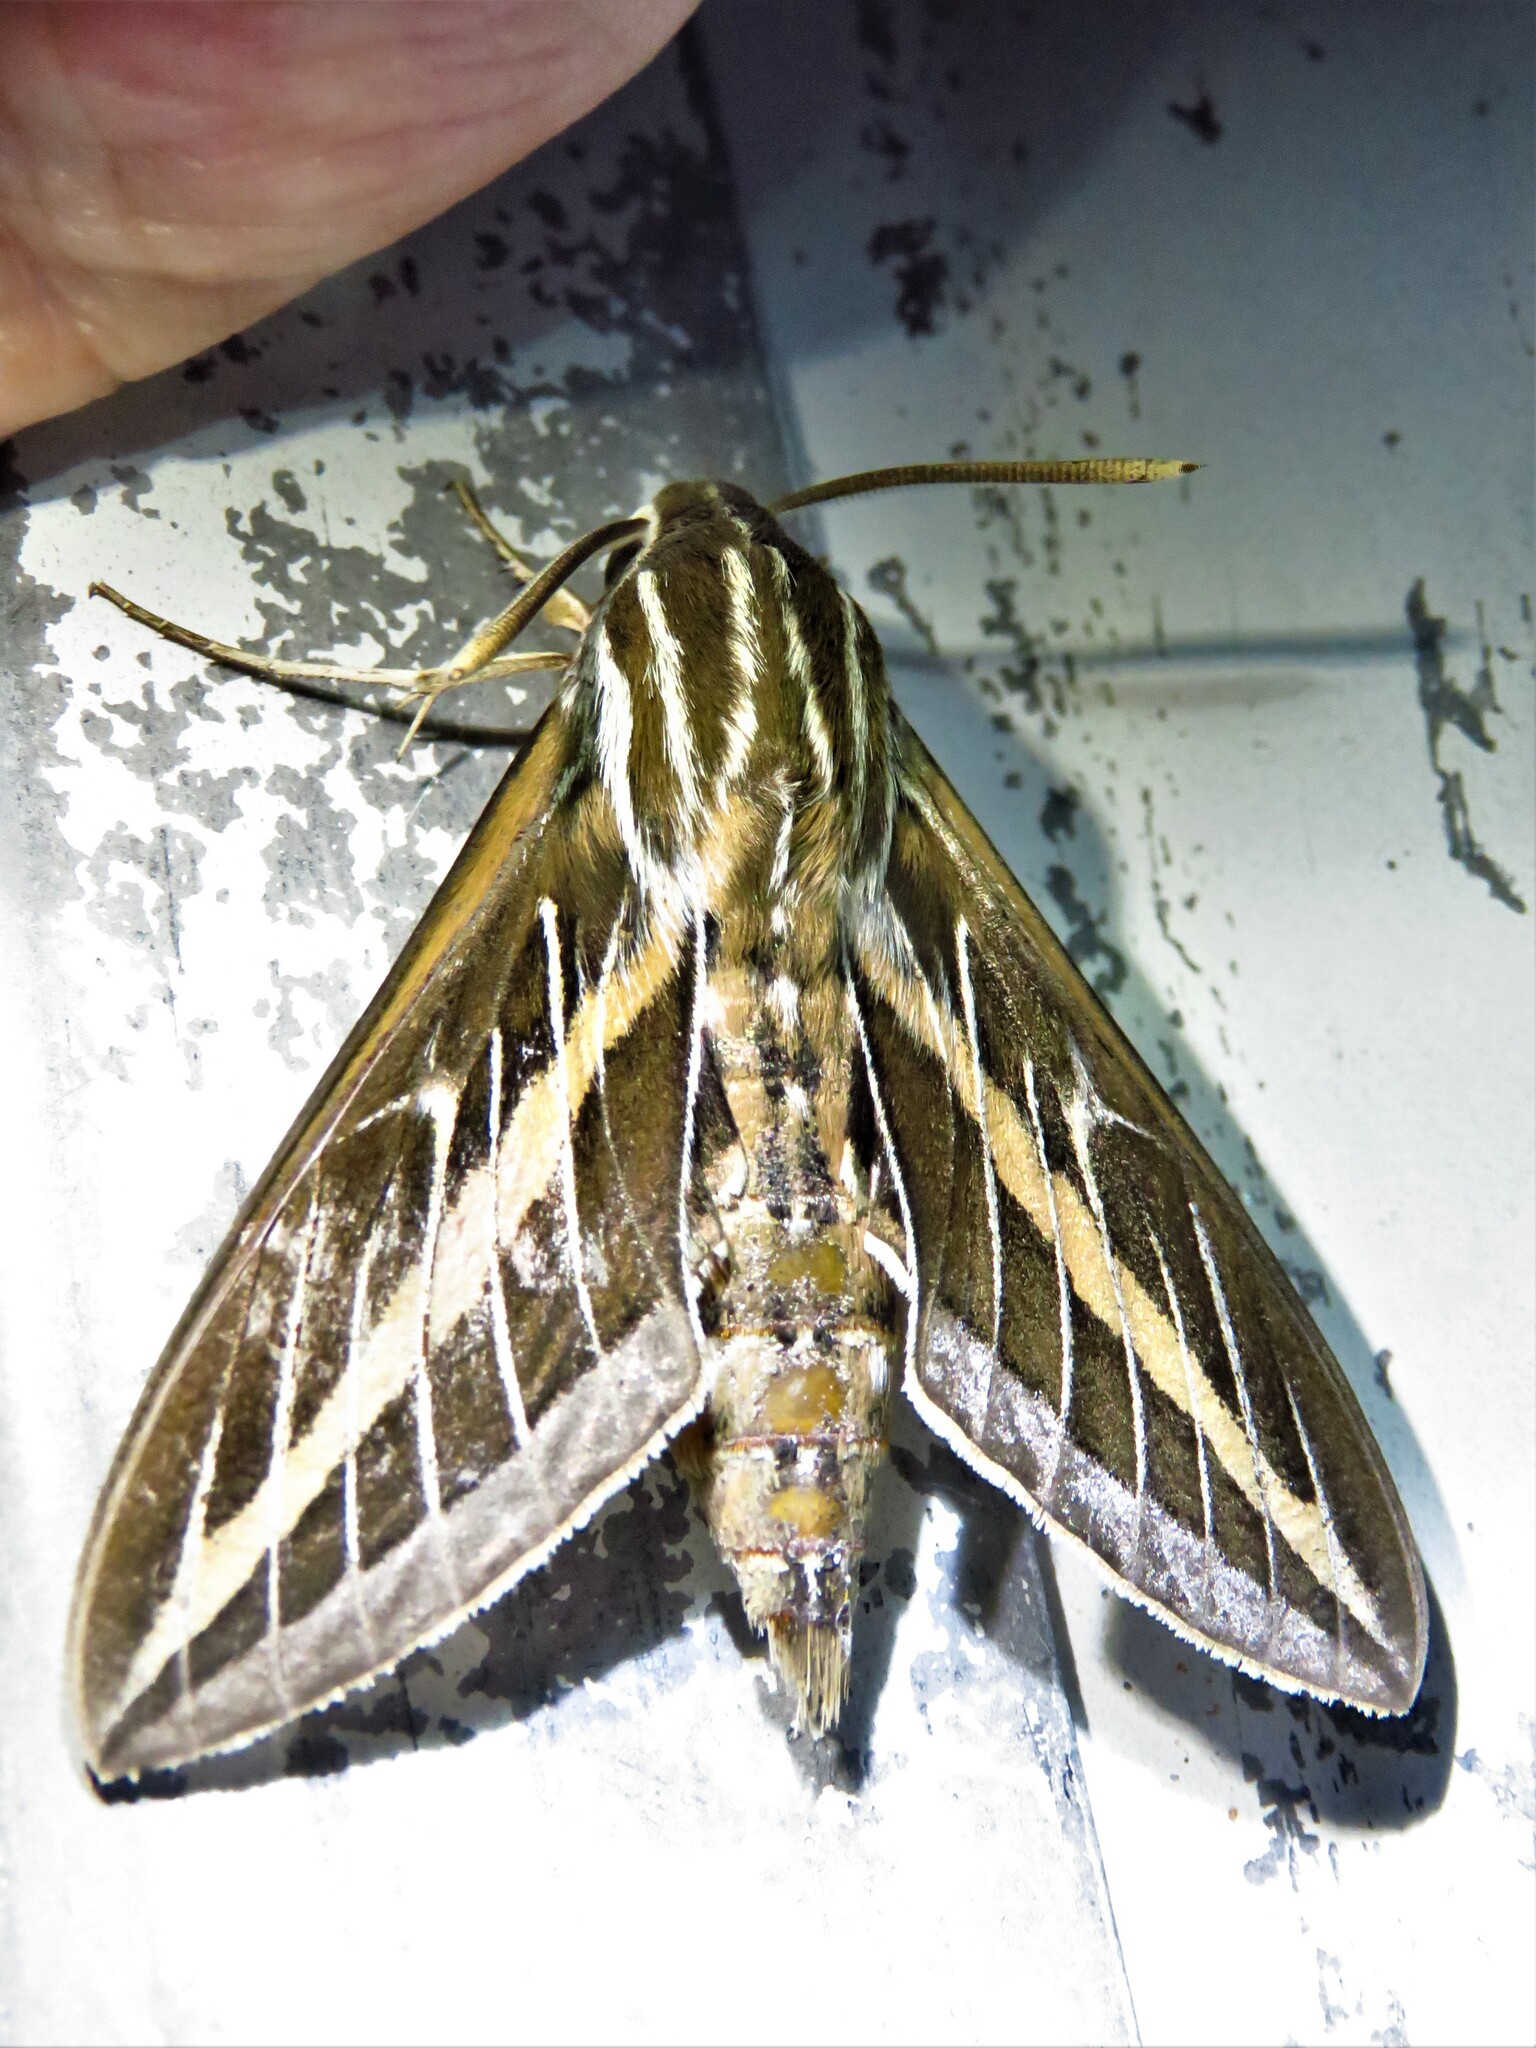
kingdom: Animalia
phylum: Arthropoda
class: Insecta
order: Lepidoptera
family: Sphingidae
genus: Hyles
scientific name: Hyles lineata
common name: White-lined sphinx
